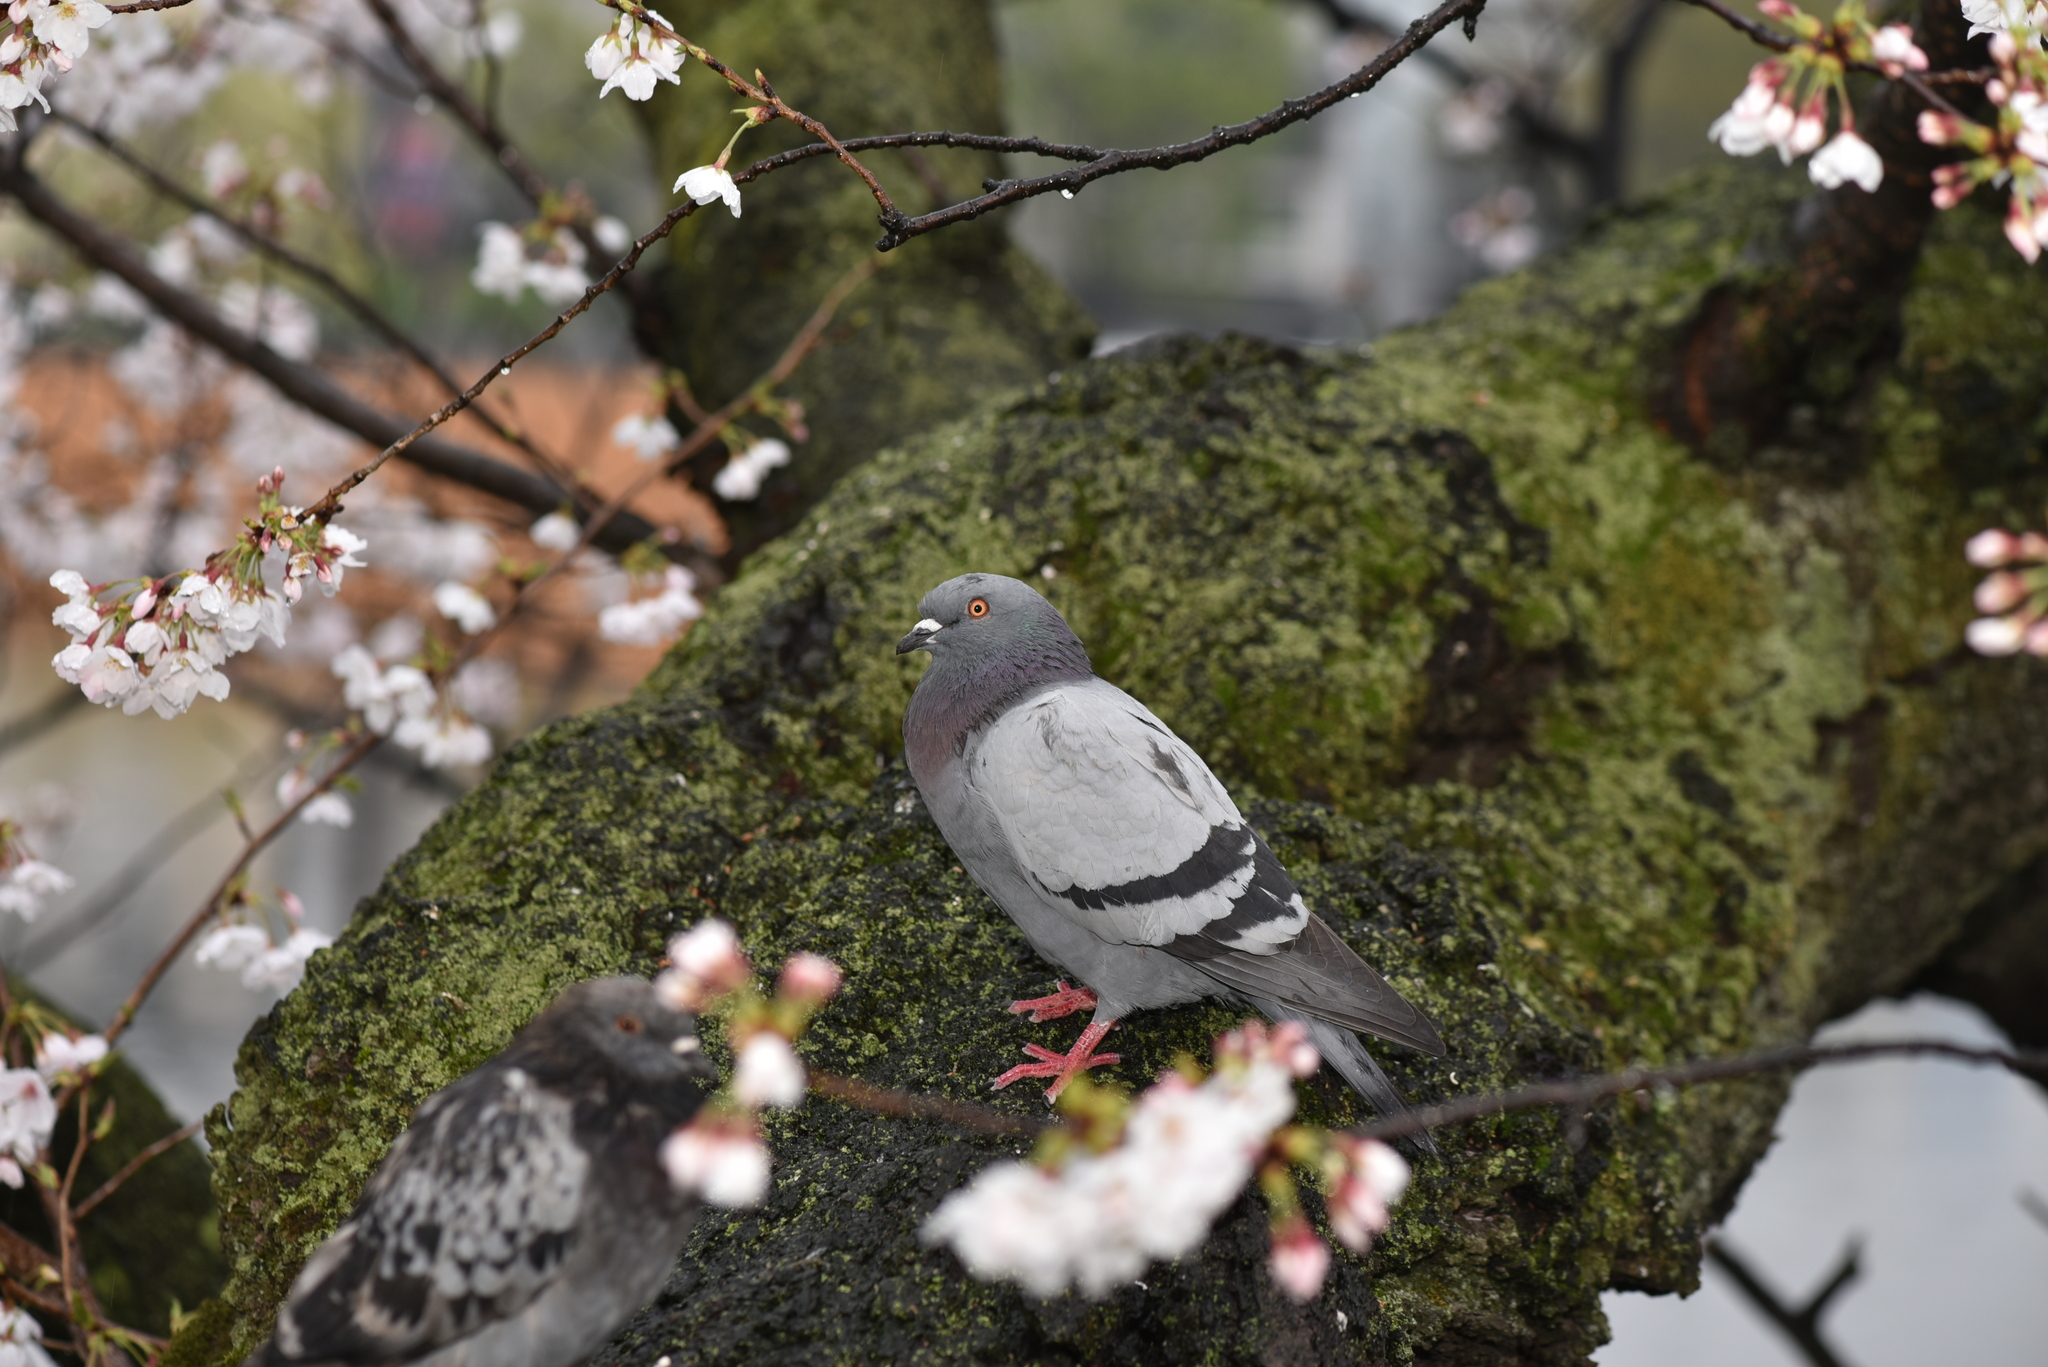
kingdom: Animalia
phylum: Chordata
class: Aves
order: Columbiformes
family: Columbidae
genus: Columba
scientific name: Columba livia
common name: Rock pigeon
